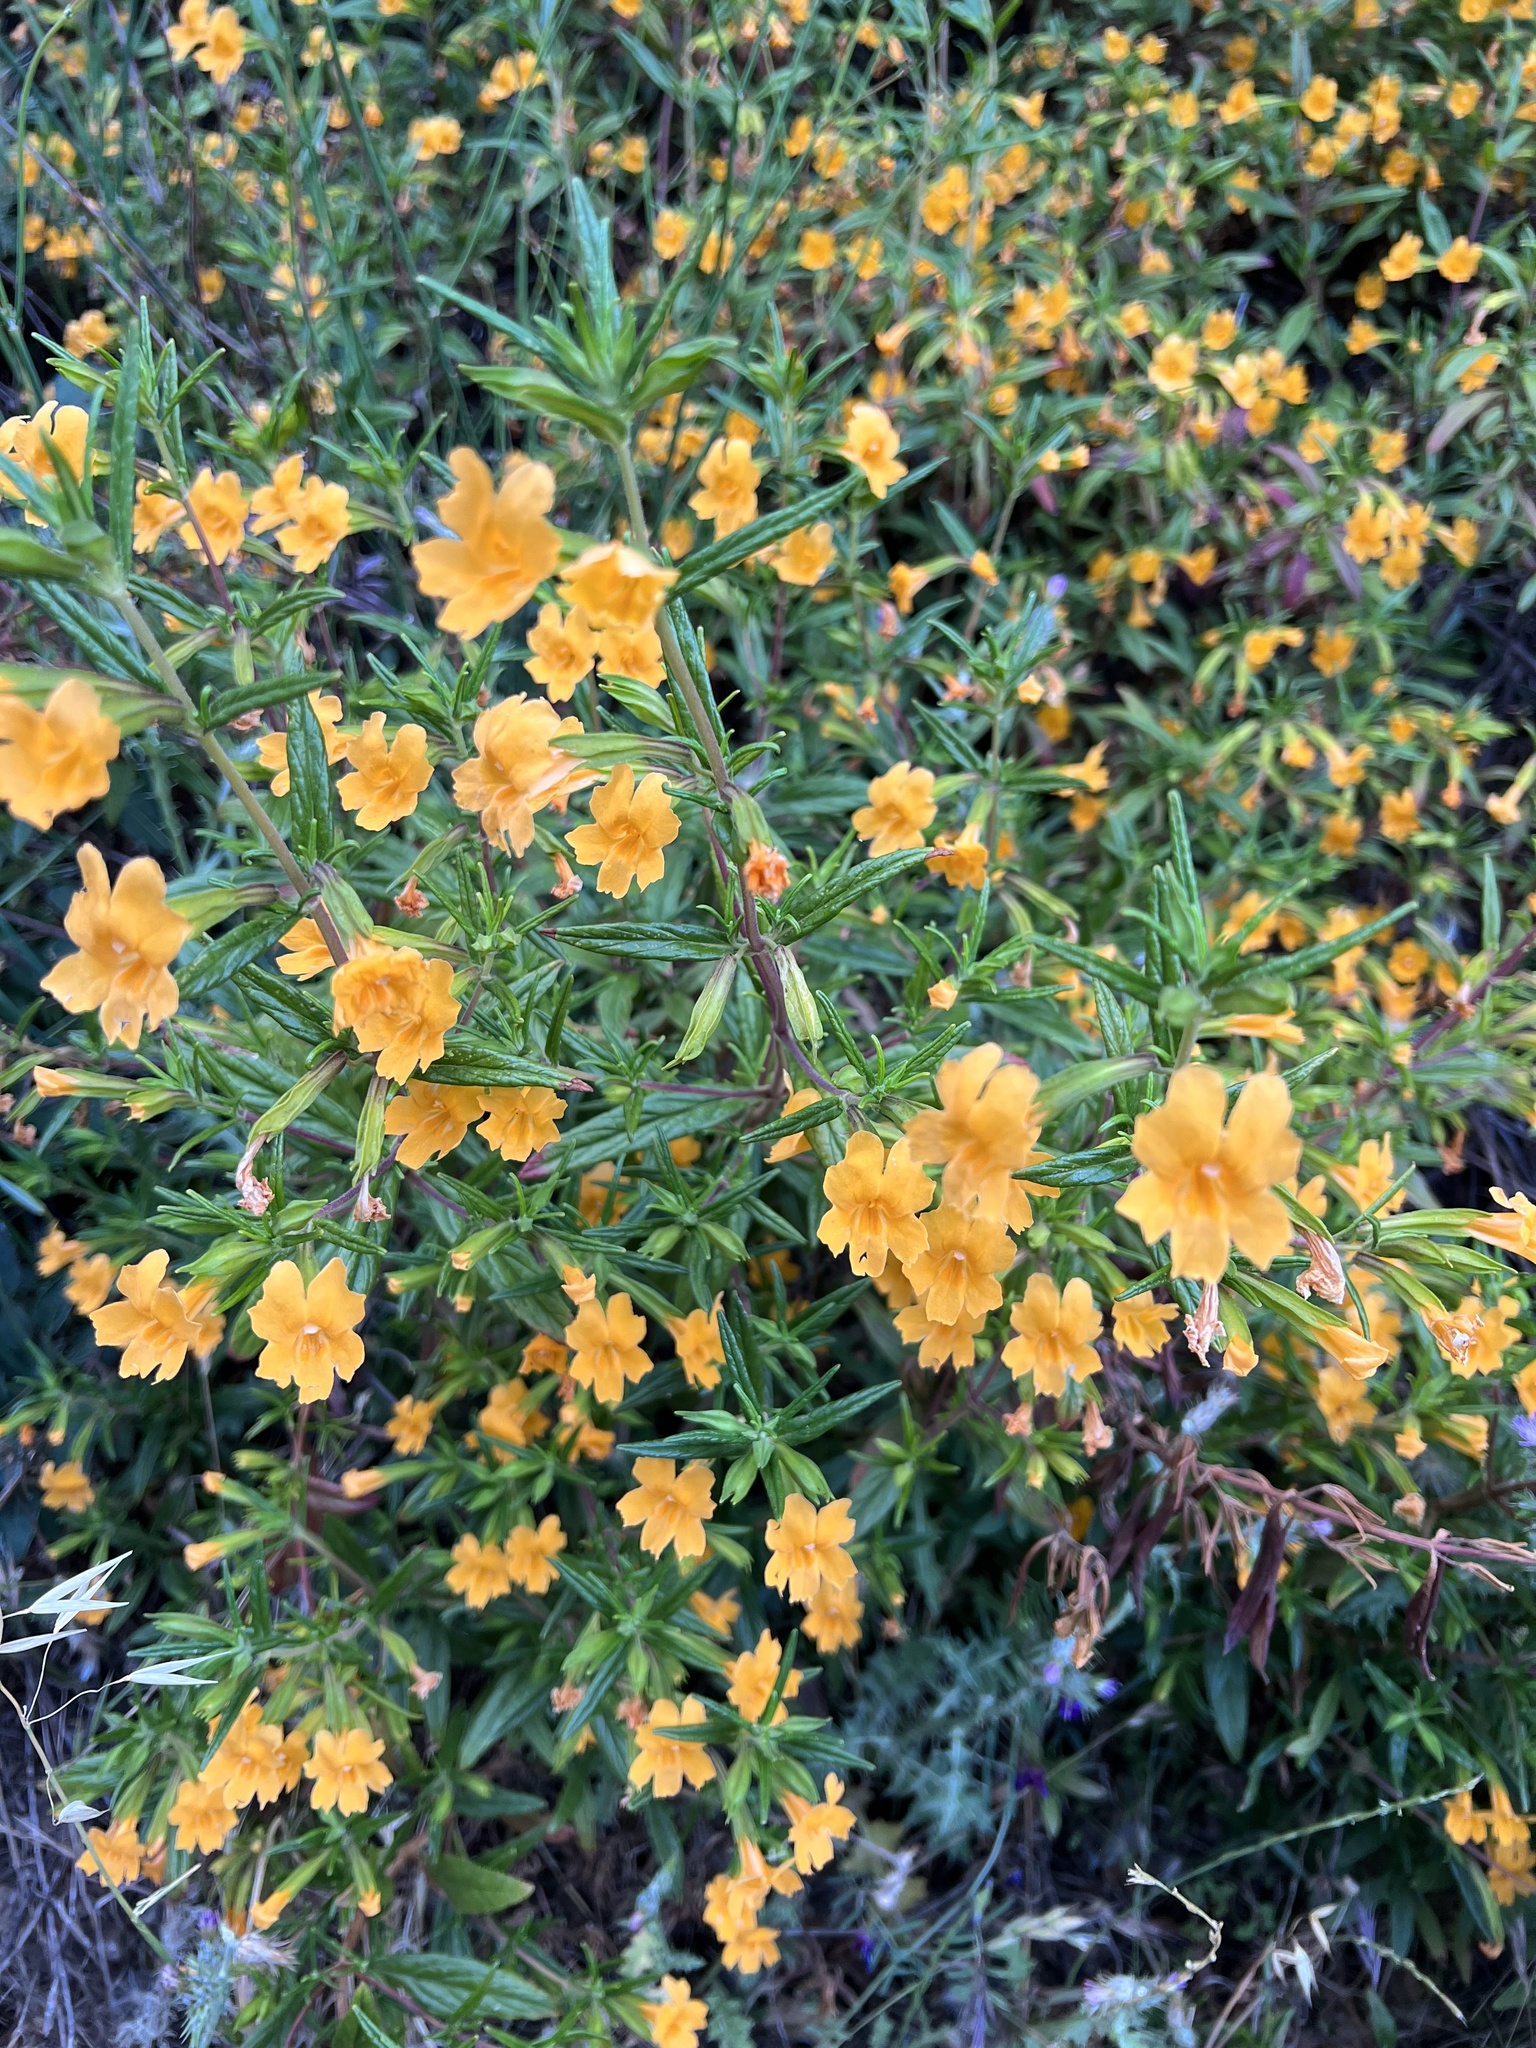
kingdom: Plantae
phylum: Tracheophyta
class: Magnoliopsida
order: Lamiales
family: Phrymaceae
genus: Diplacus
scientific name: Diplacus aurantiacus
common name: Bush monkey-flower
